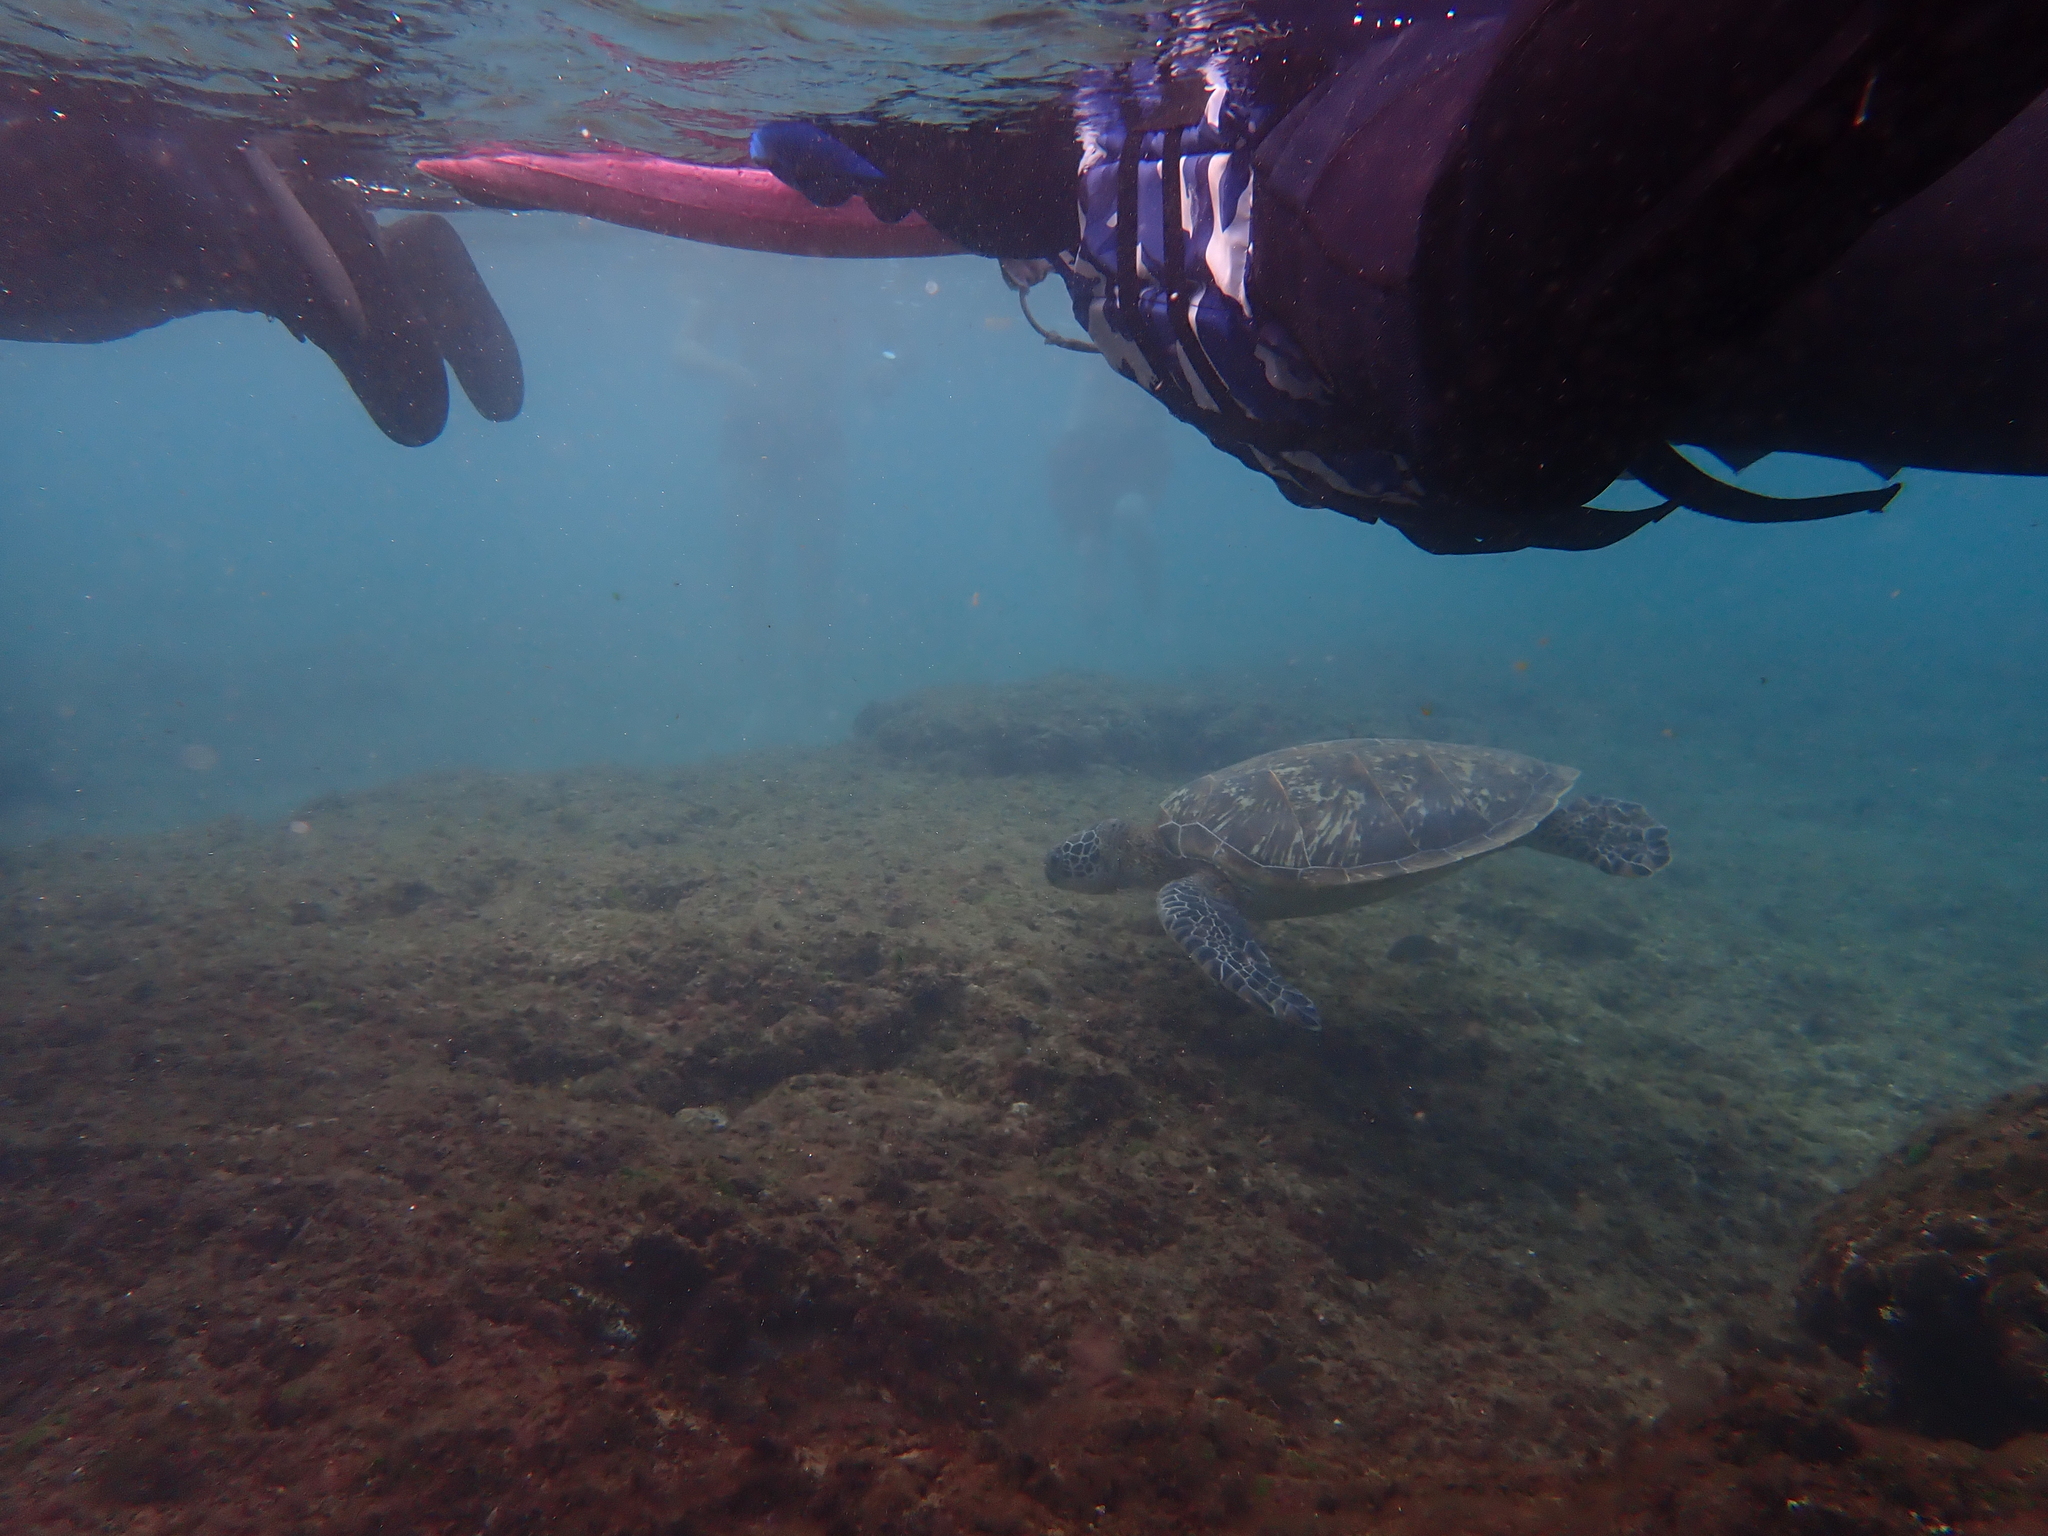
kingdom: Animalia
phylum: Chordata
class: Testudines
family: Cheloniidae
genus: Chelonia
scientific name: Chelonia mydas
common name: Green turtle
